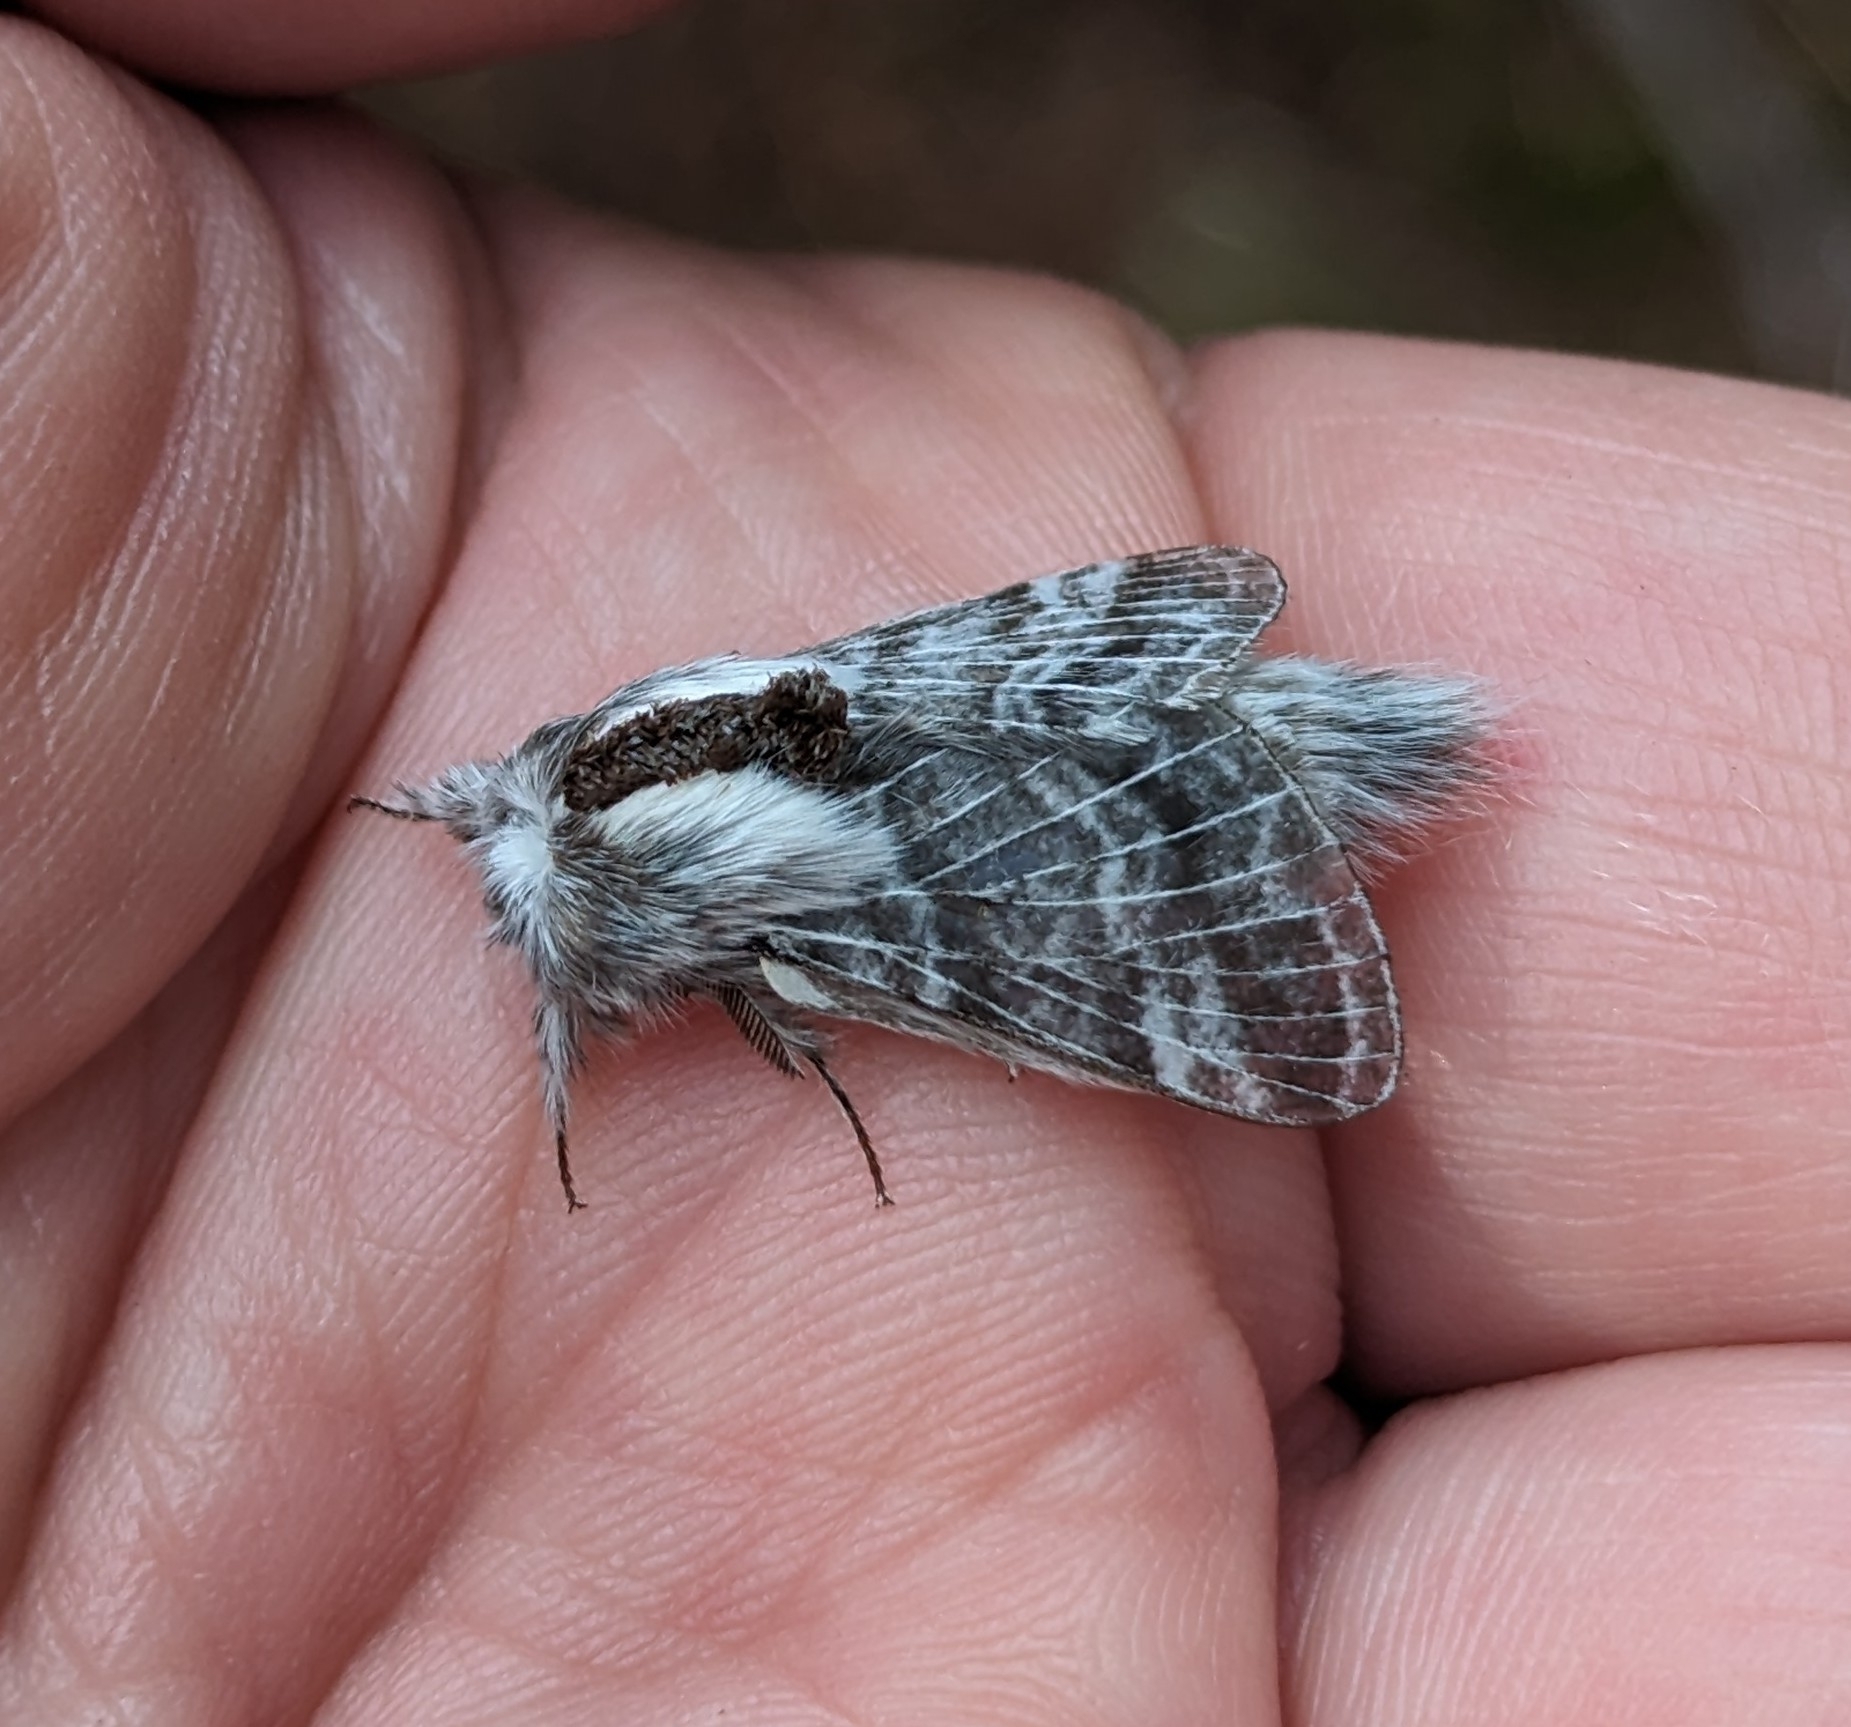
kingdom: Animalia
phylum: Arthropoda
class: Insecta
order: Lepidoptera
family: Lasiocampidae
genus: Tolype
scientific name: Tolype dayi
